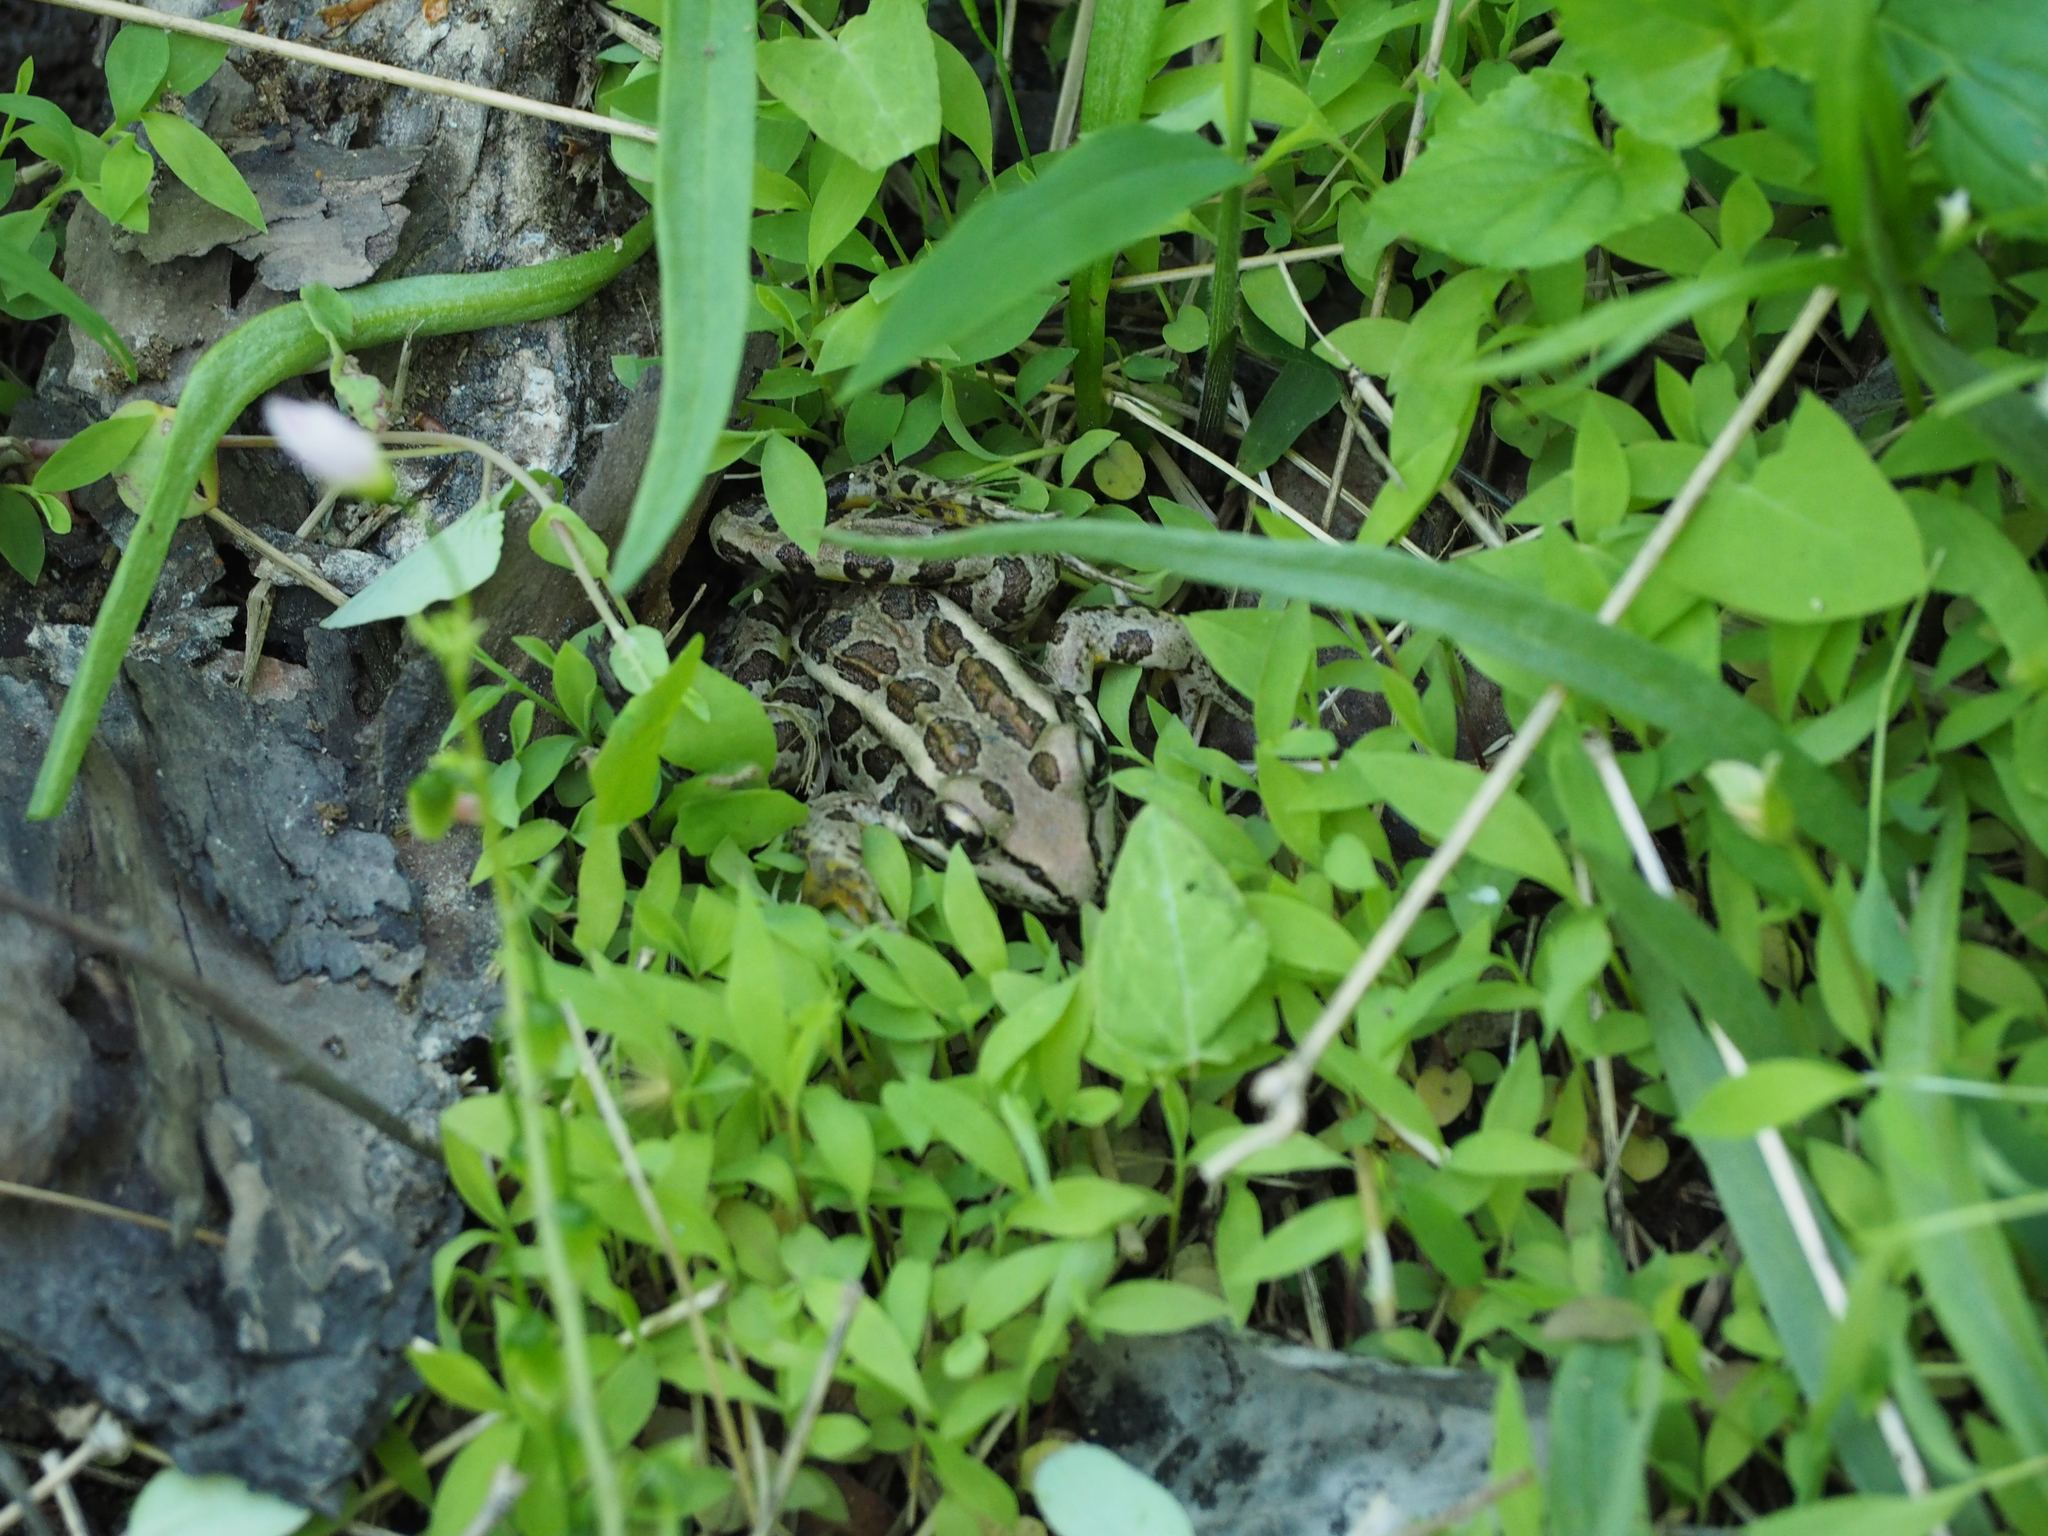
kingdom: Animalia
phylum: Chordata
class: Amphibia
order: Anura
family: Ranidae
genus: Lithobates
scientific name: Lithobates palustris
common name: Pickerel frog
